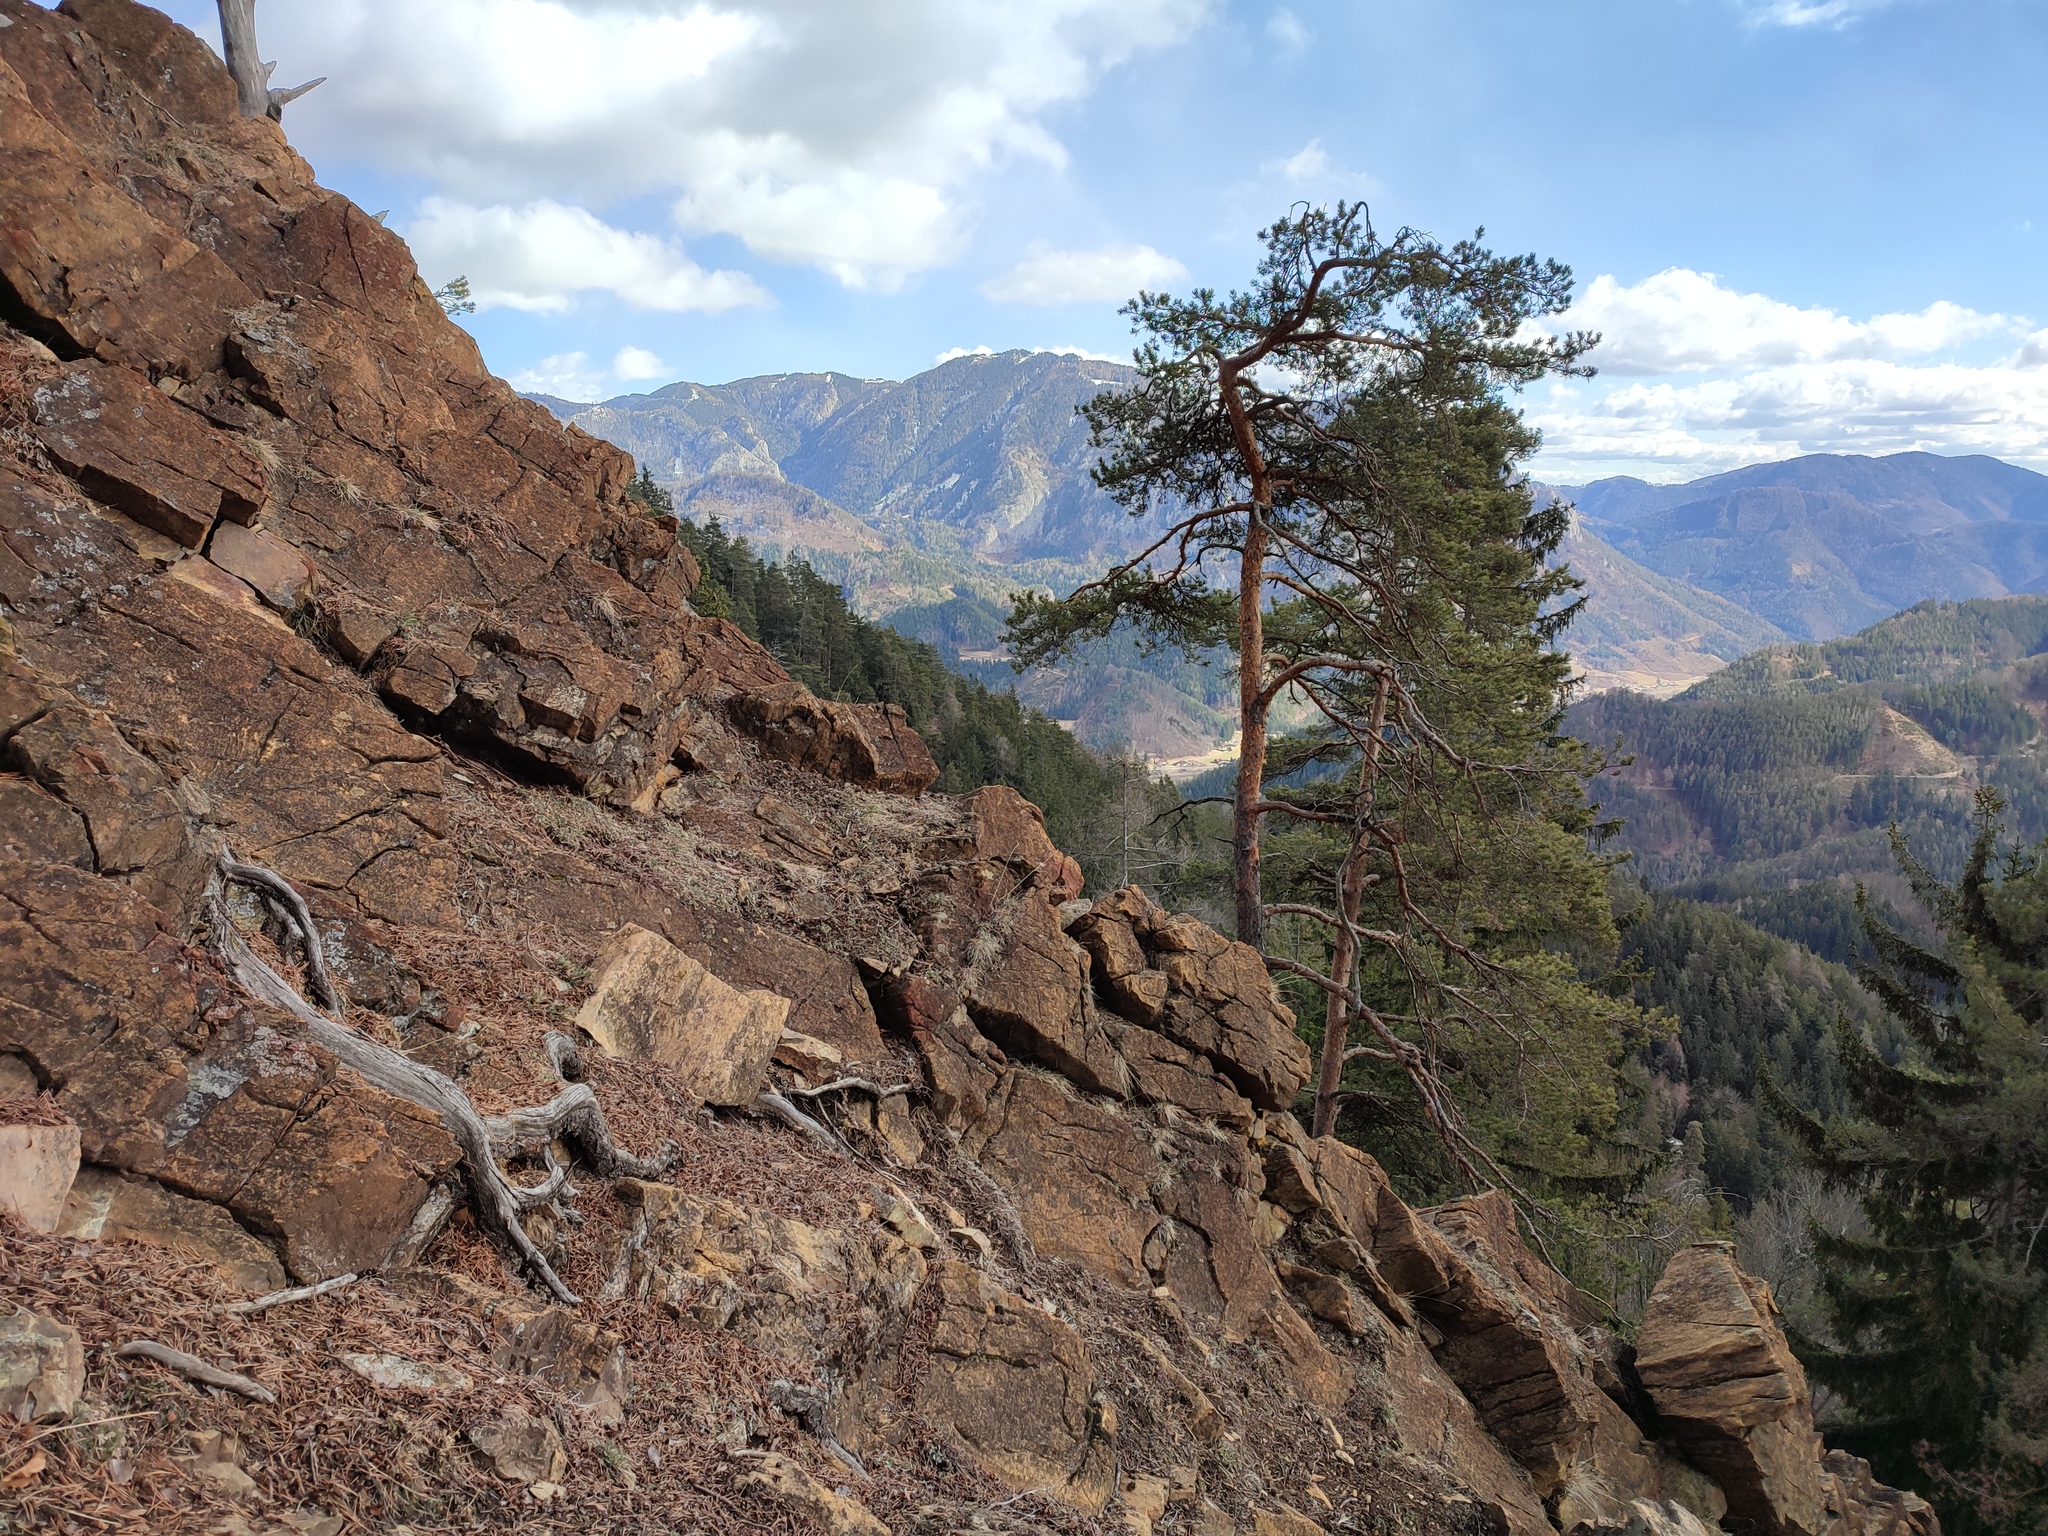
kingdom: Plantae
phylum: Tracheophyta
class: Pinopsida
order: Pinales
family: Pinaceae
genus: Pinus
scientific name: Pinus sylvestris
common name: Scots pine
